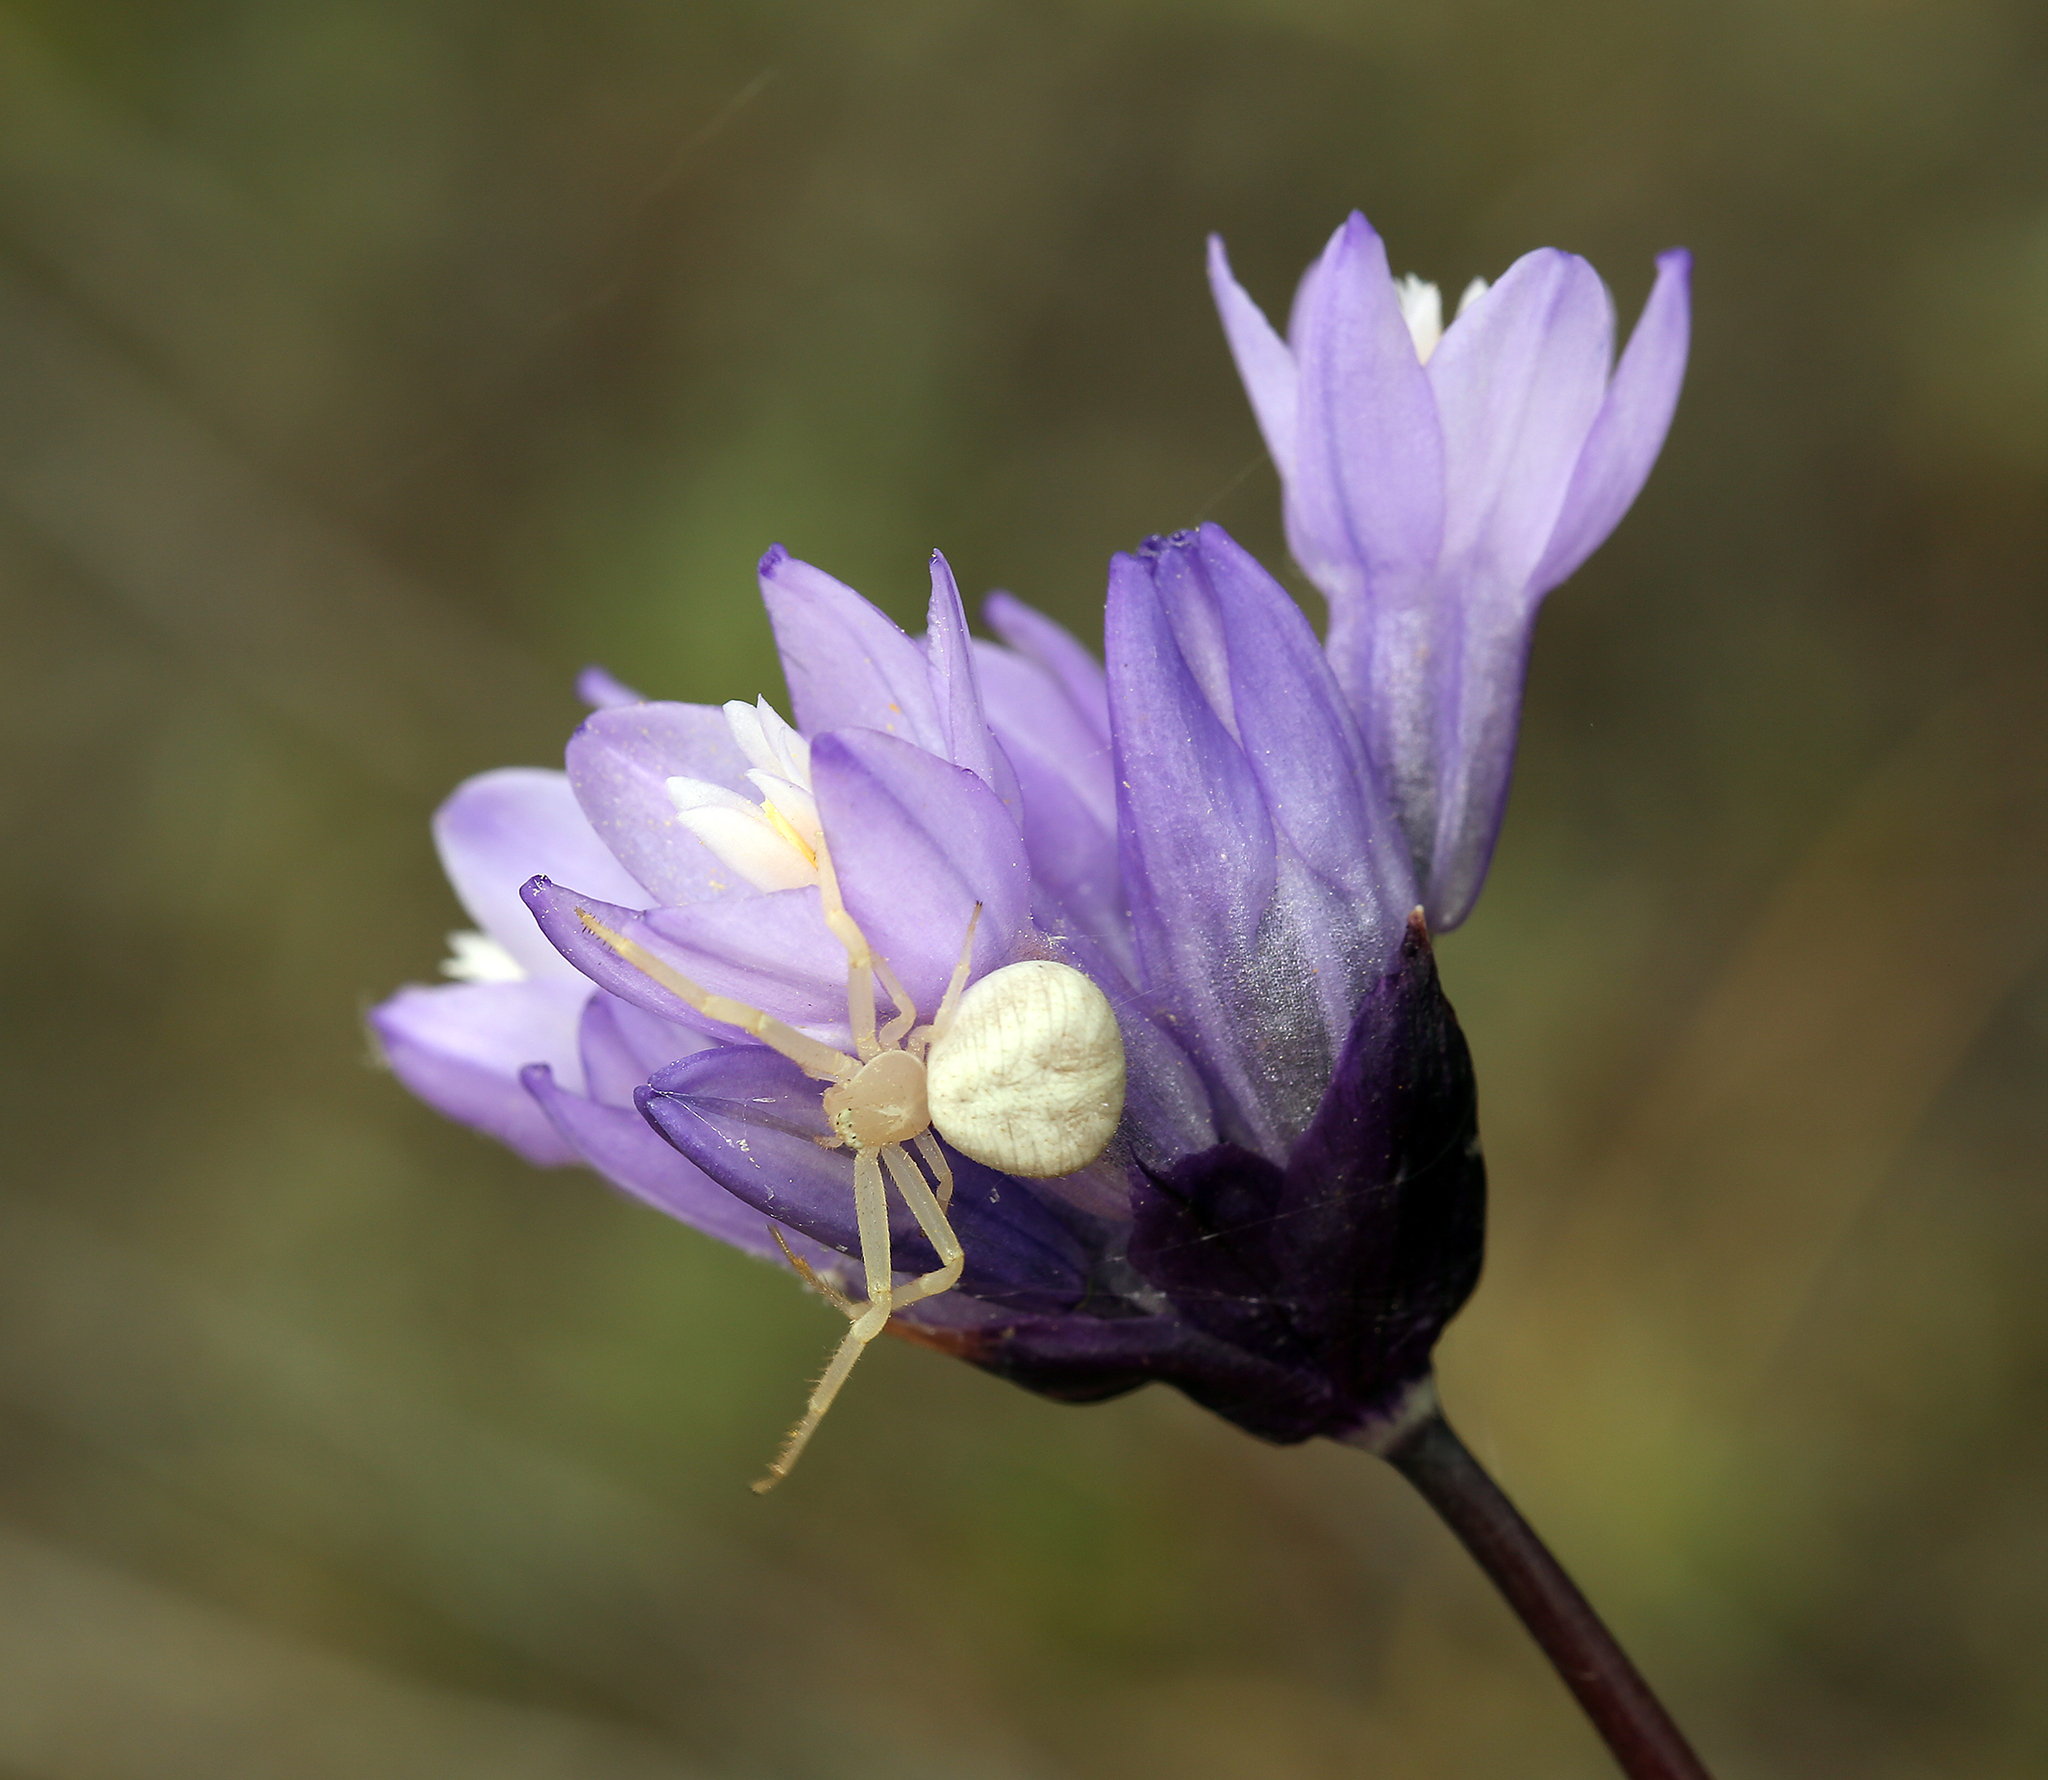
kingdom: Plantae
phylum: Tracheophyta
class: Liliopsida
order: Asparagales
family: Asparagaceae
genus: Dipterostemon
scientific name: Dipterostemon capitatus
